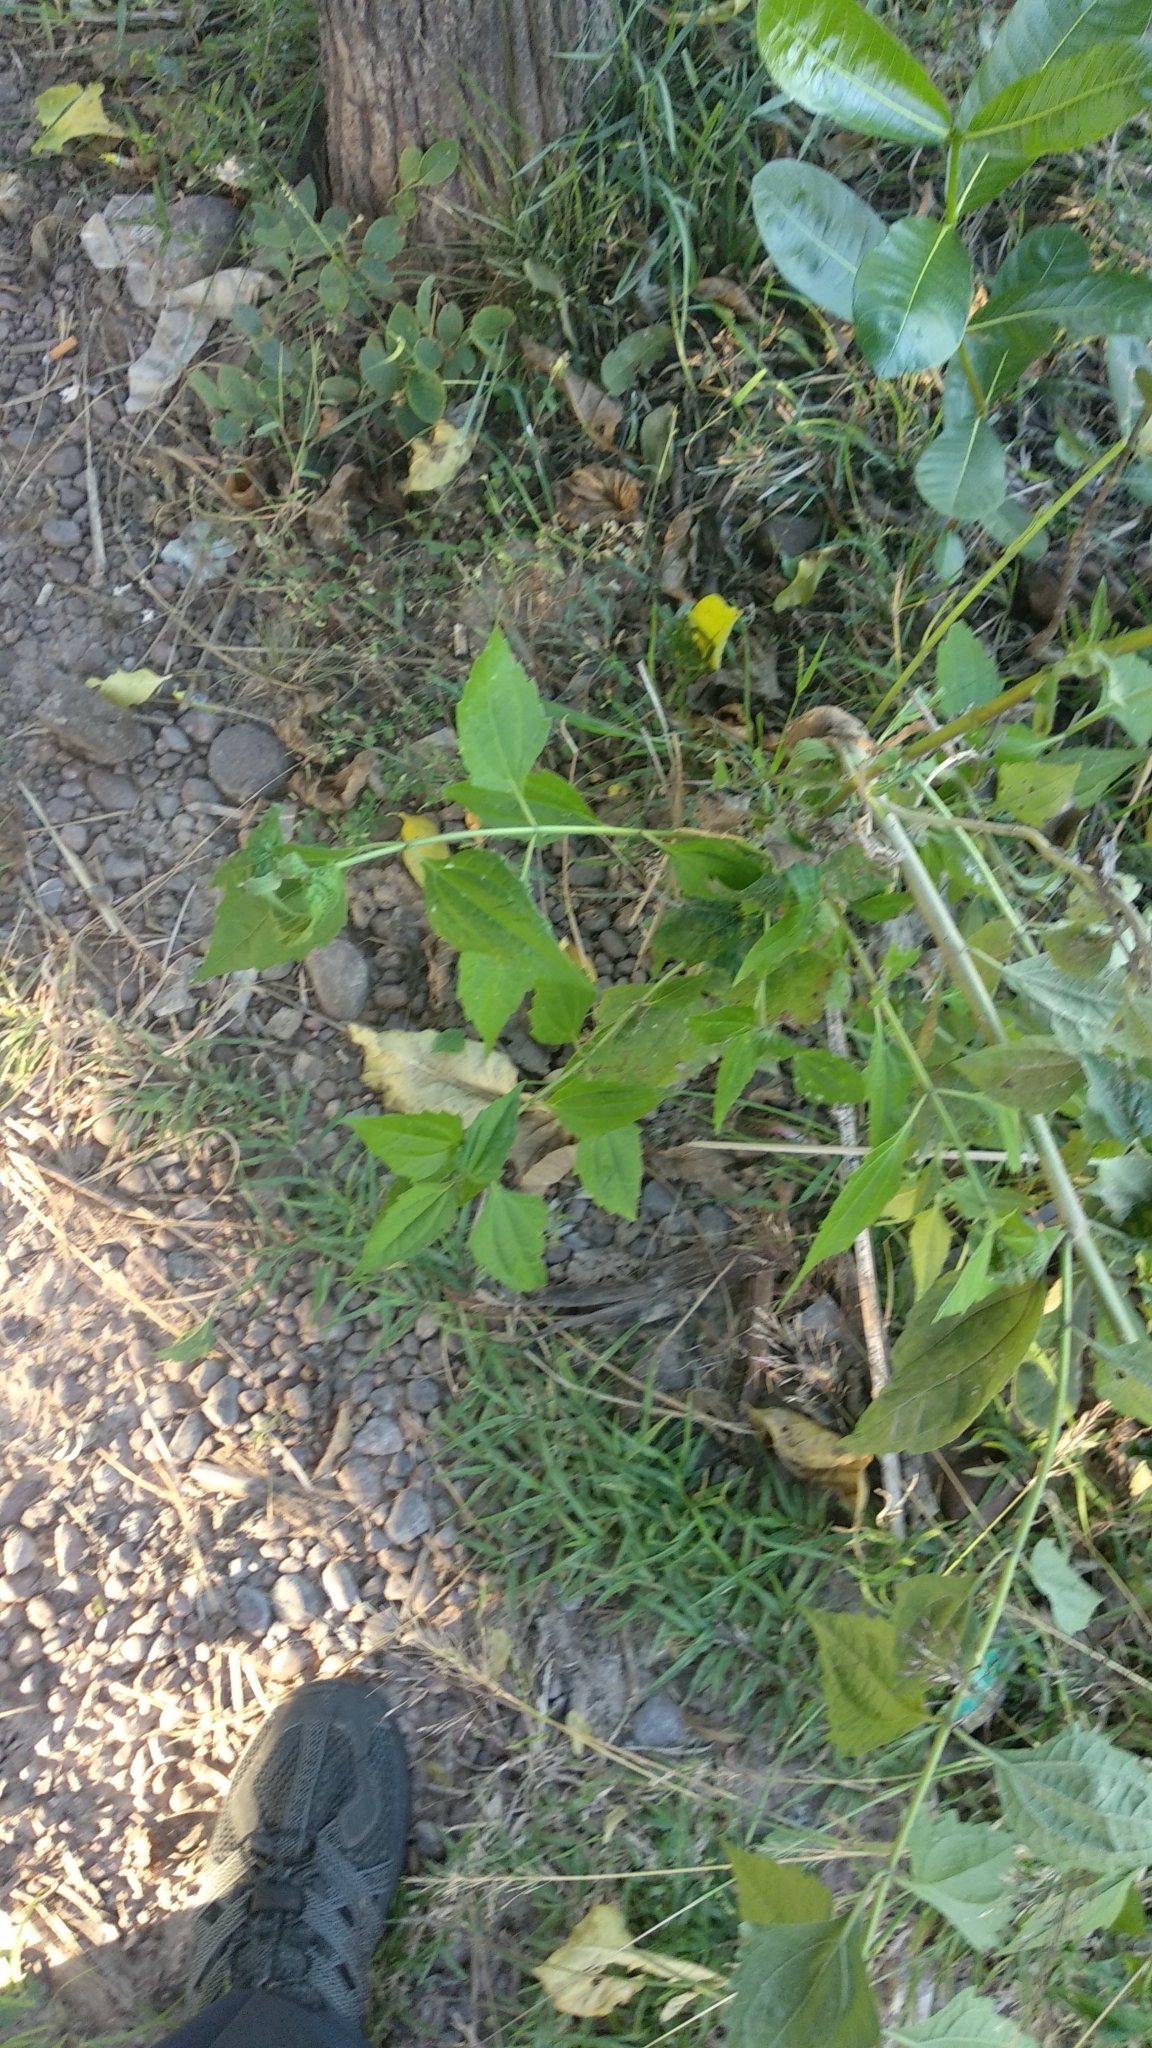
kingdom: Plantae
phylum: Tracheophyta
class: Magnoliopsida
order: Asterales
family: Asteraceae
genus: Chromolaena
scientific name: Chromolaena odorata
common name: Siamweed
